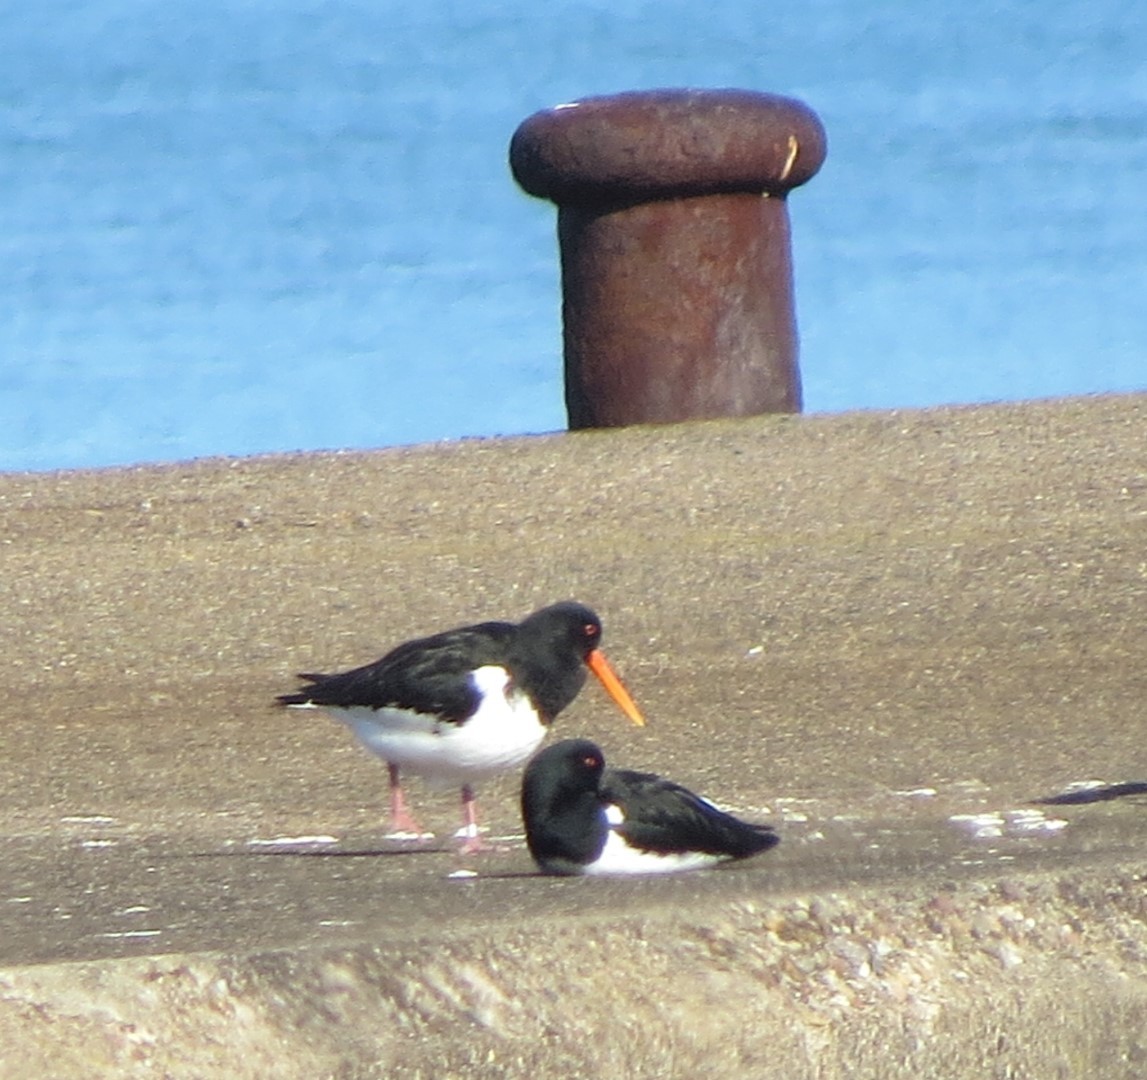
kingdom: Animalia
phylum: Chordata
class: Aves
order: Charadriiformes
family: Haematopodidae
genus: Haematopus
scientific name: Haematopus ostralegus
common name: Eurasian oystercatcher
